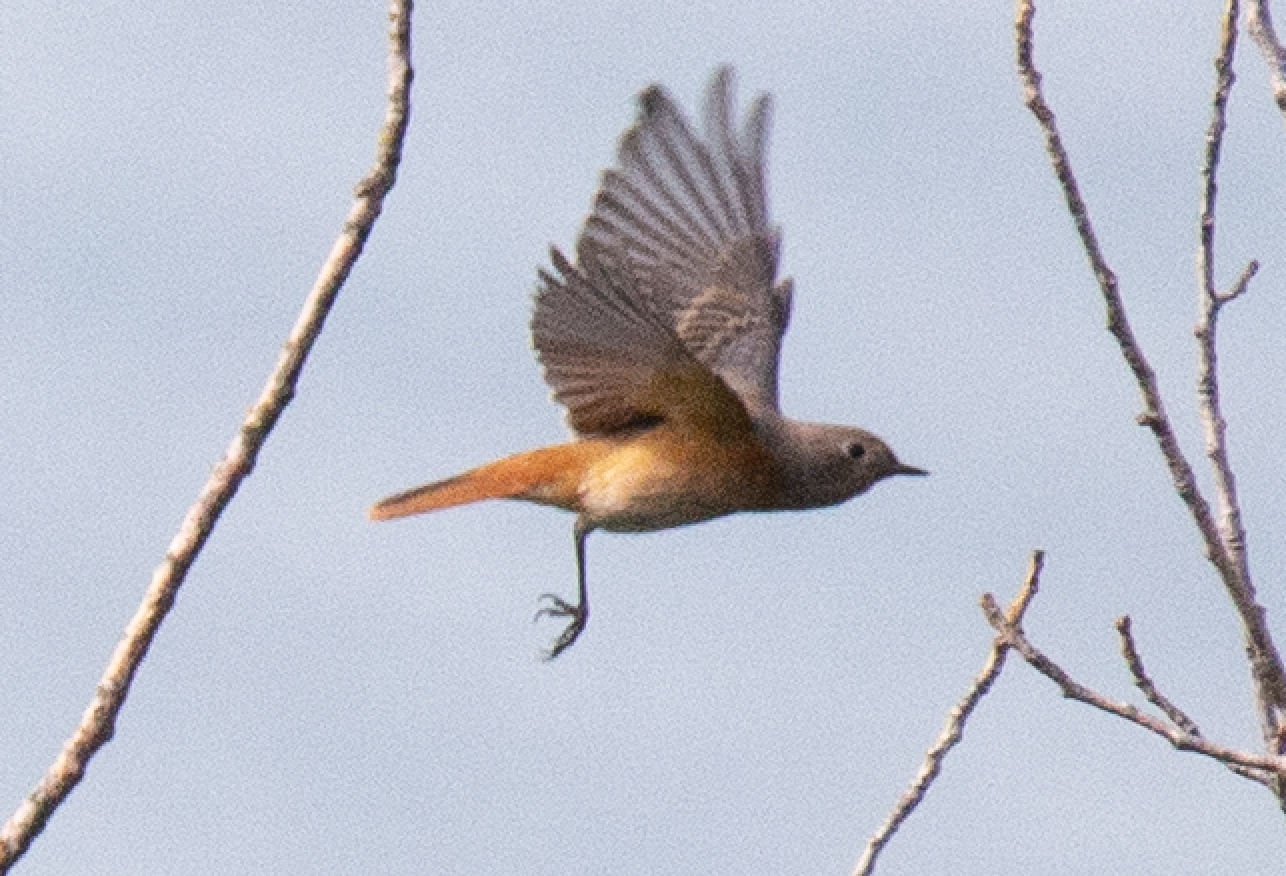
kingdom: Animalia
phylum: Chordata
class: Aves
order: Passeriformes
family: Muscicapidae
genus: Phoenicurus
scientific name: Phoenicurus phoenicurus
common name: Common redstart
